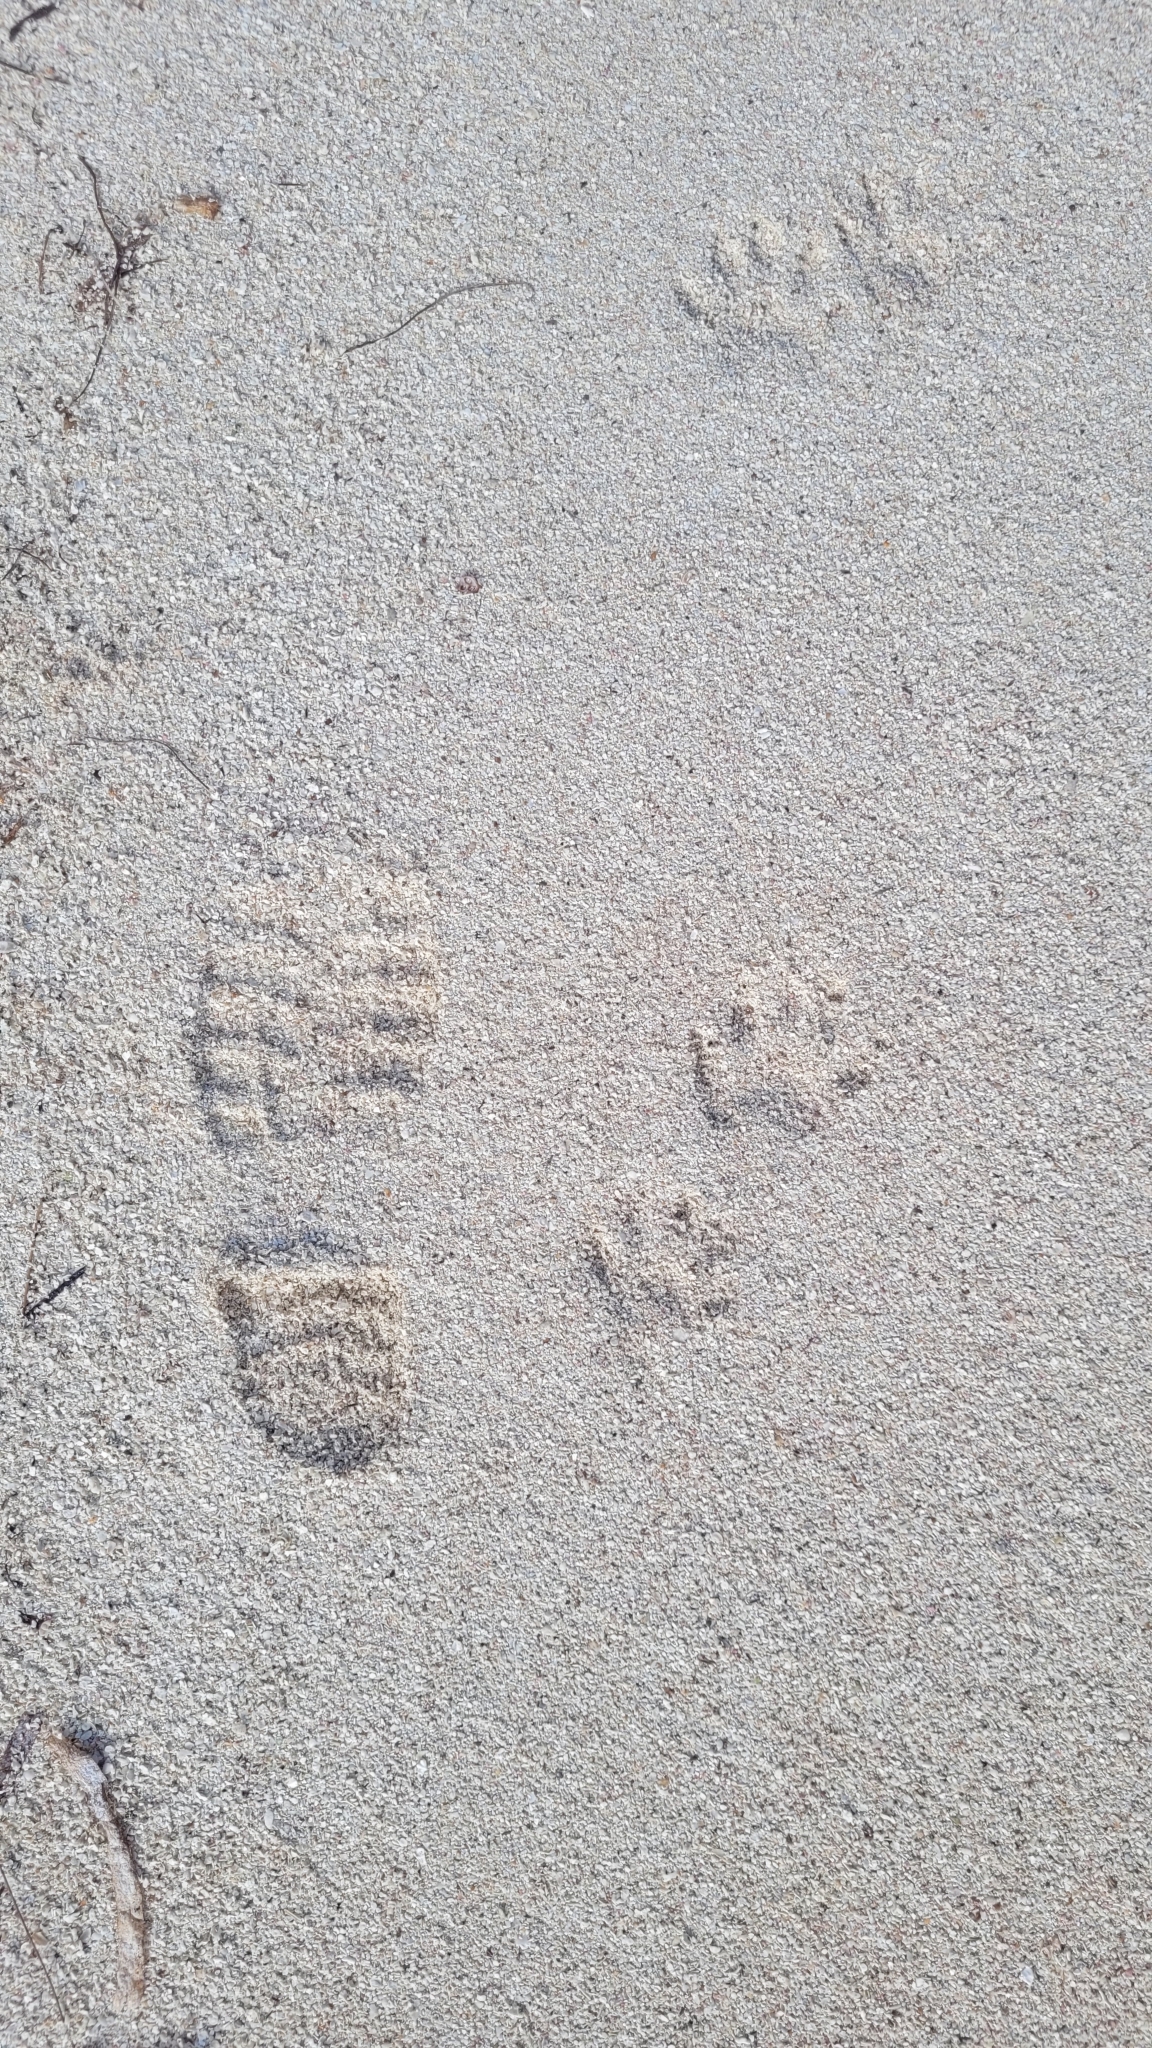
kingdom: Animalia
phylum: Chordata
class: Mammalia
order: Carnivora
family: Procyonidae
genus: Procyon
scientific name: Procyon lotor
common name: Raccoon
